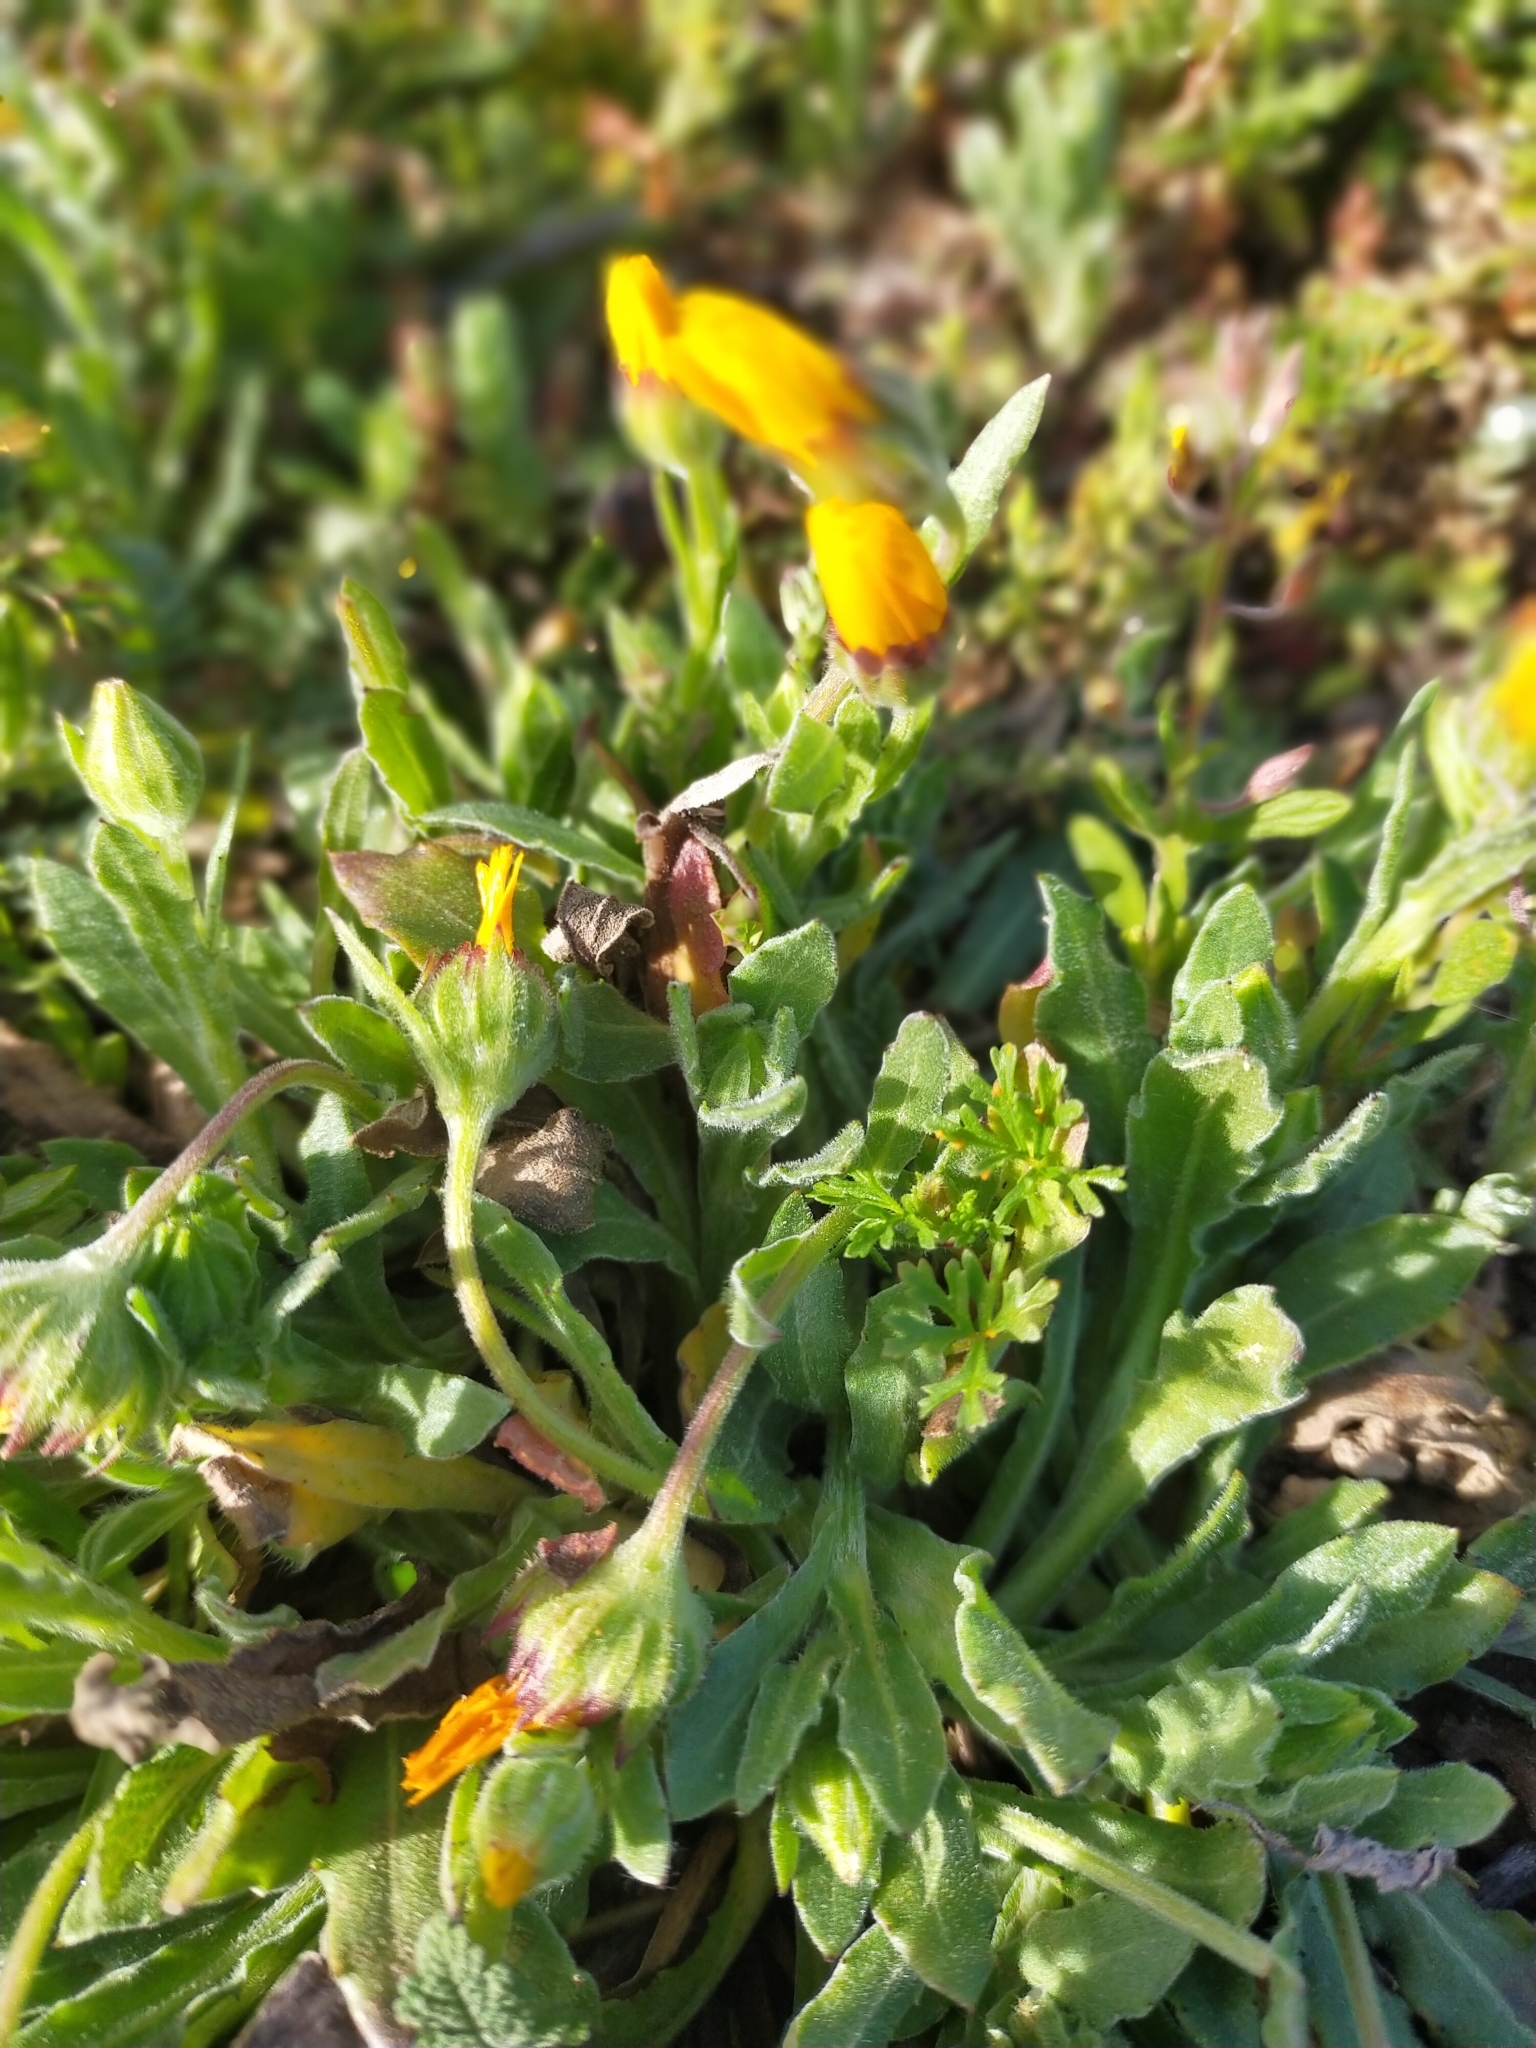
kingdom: Plantae
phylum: Tracheophyta
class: Magnoliopsida
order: Asterales
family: Asteraceae
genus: Calendula
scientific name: Calendula arvensis
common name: Field marigold
